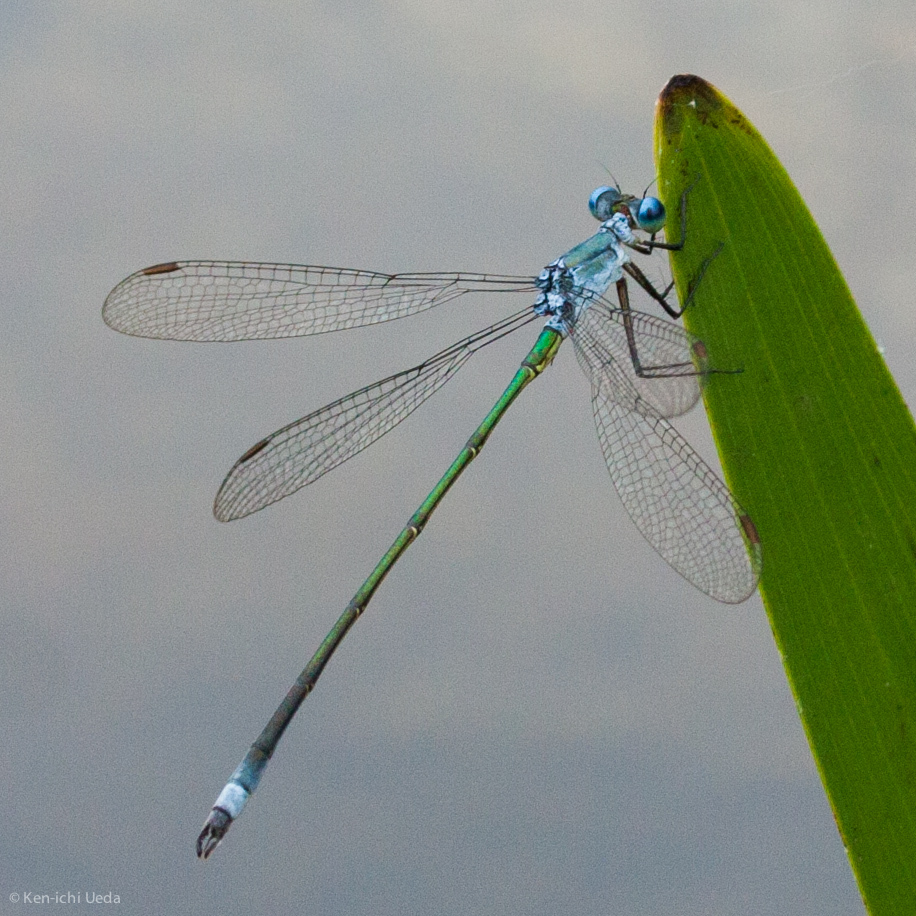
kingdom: Animalia
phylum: Arthropoda
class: Insecta
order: Odonata
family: Lestidae
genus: Lestes
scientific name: Lestes vigilax
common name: Swamp spreadwing
